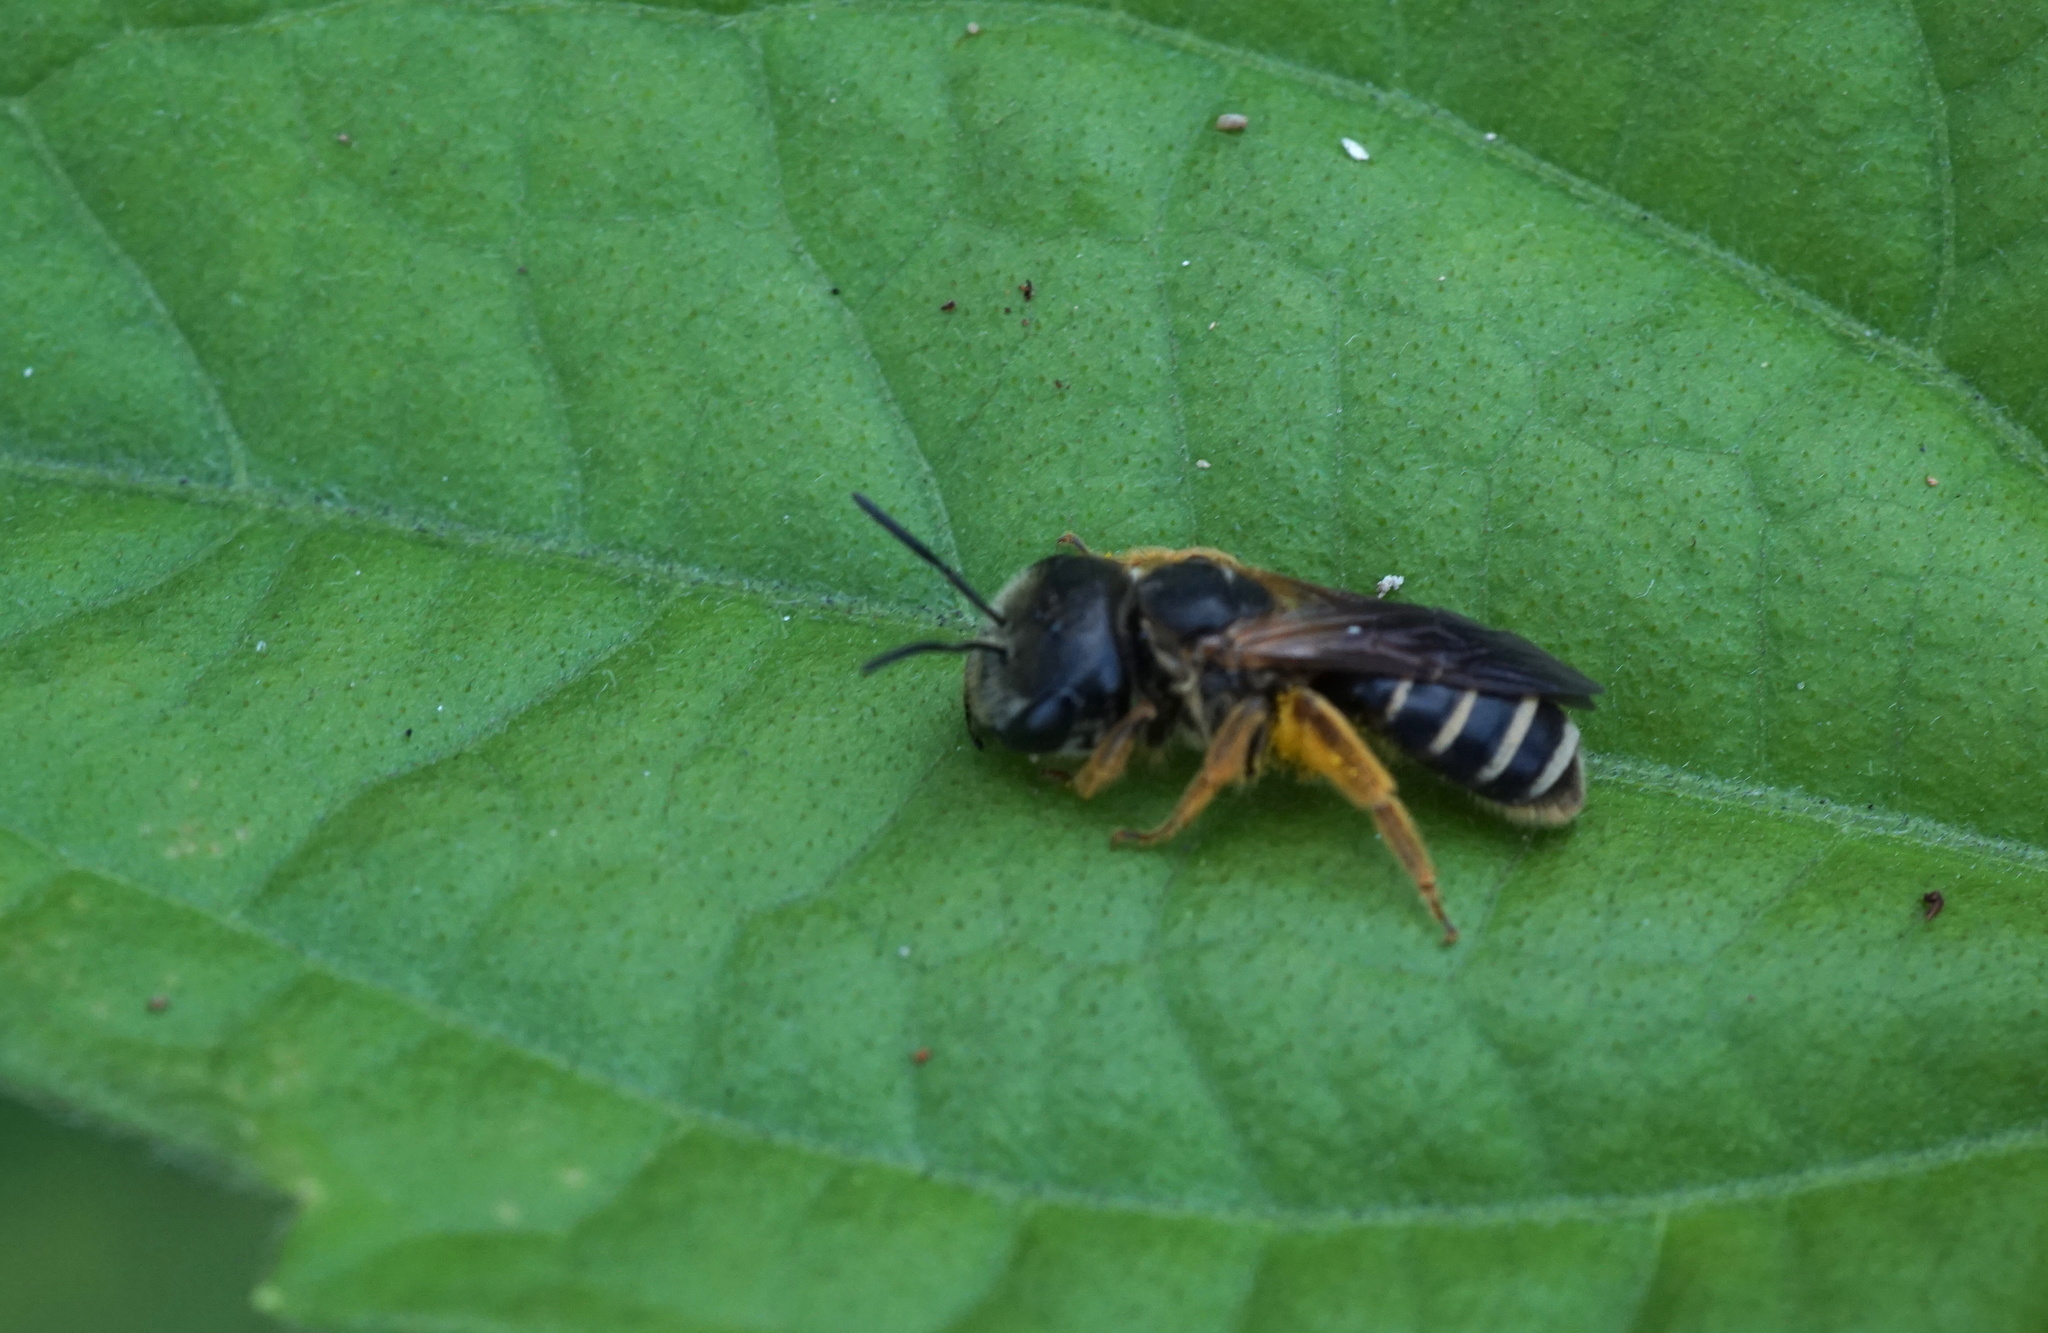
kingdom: Animalia
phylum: Arthropoda
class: Insecta
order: Hymenoptera
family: Halictidae
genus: Halictus
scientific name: Halictus poeyi
